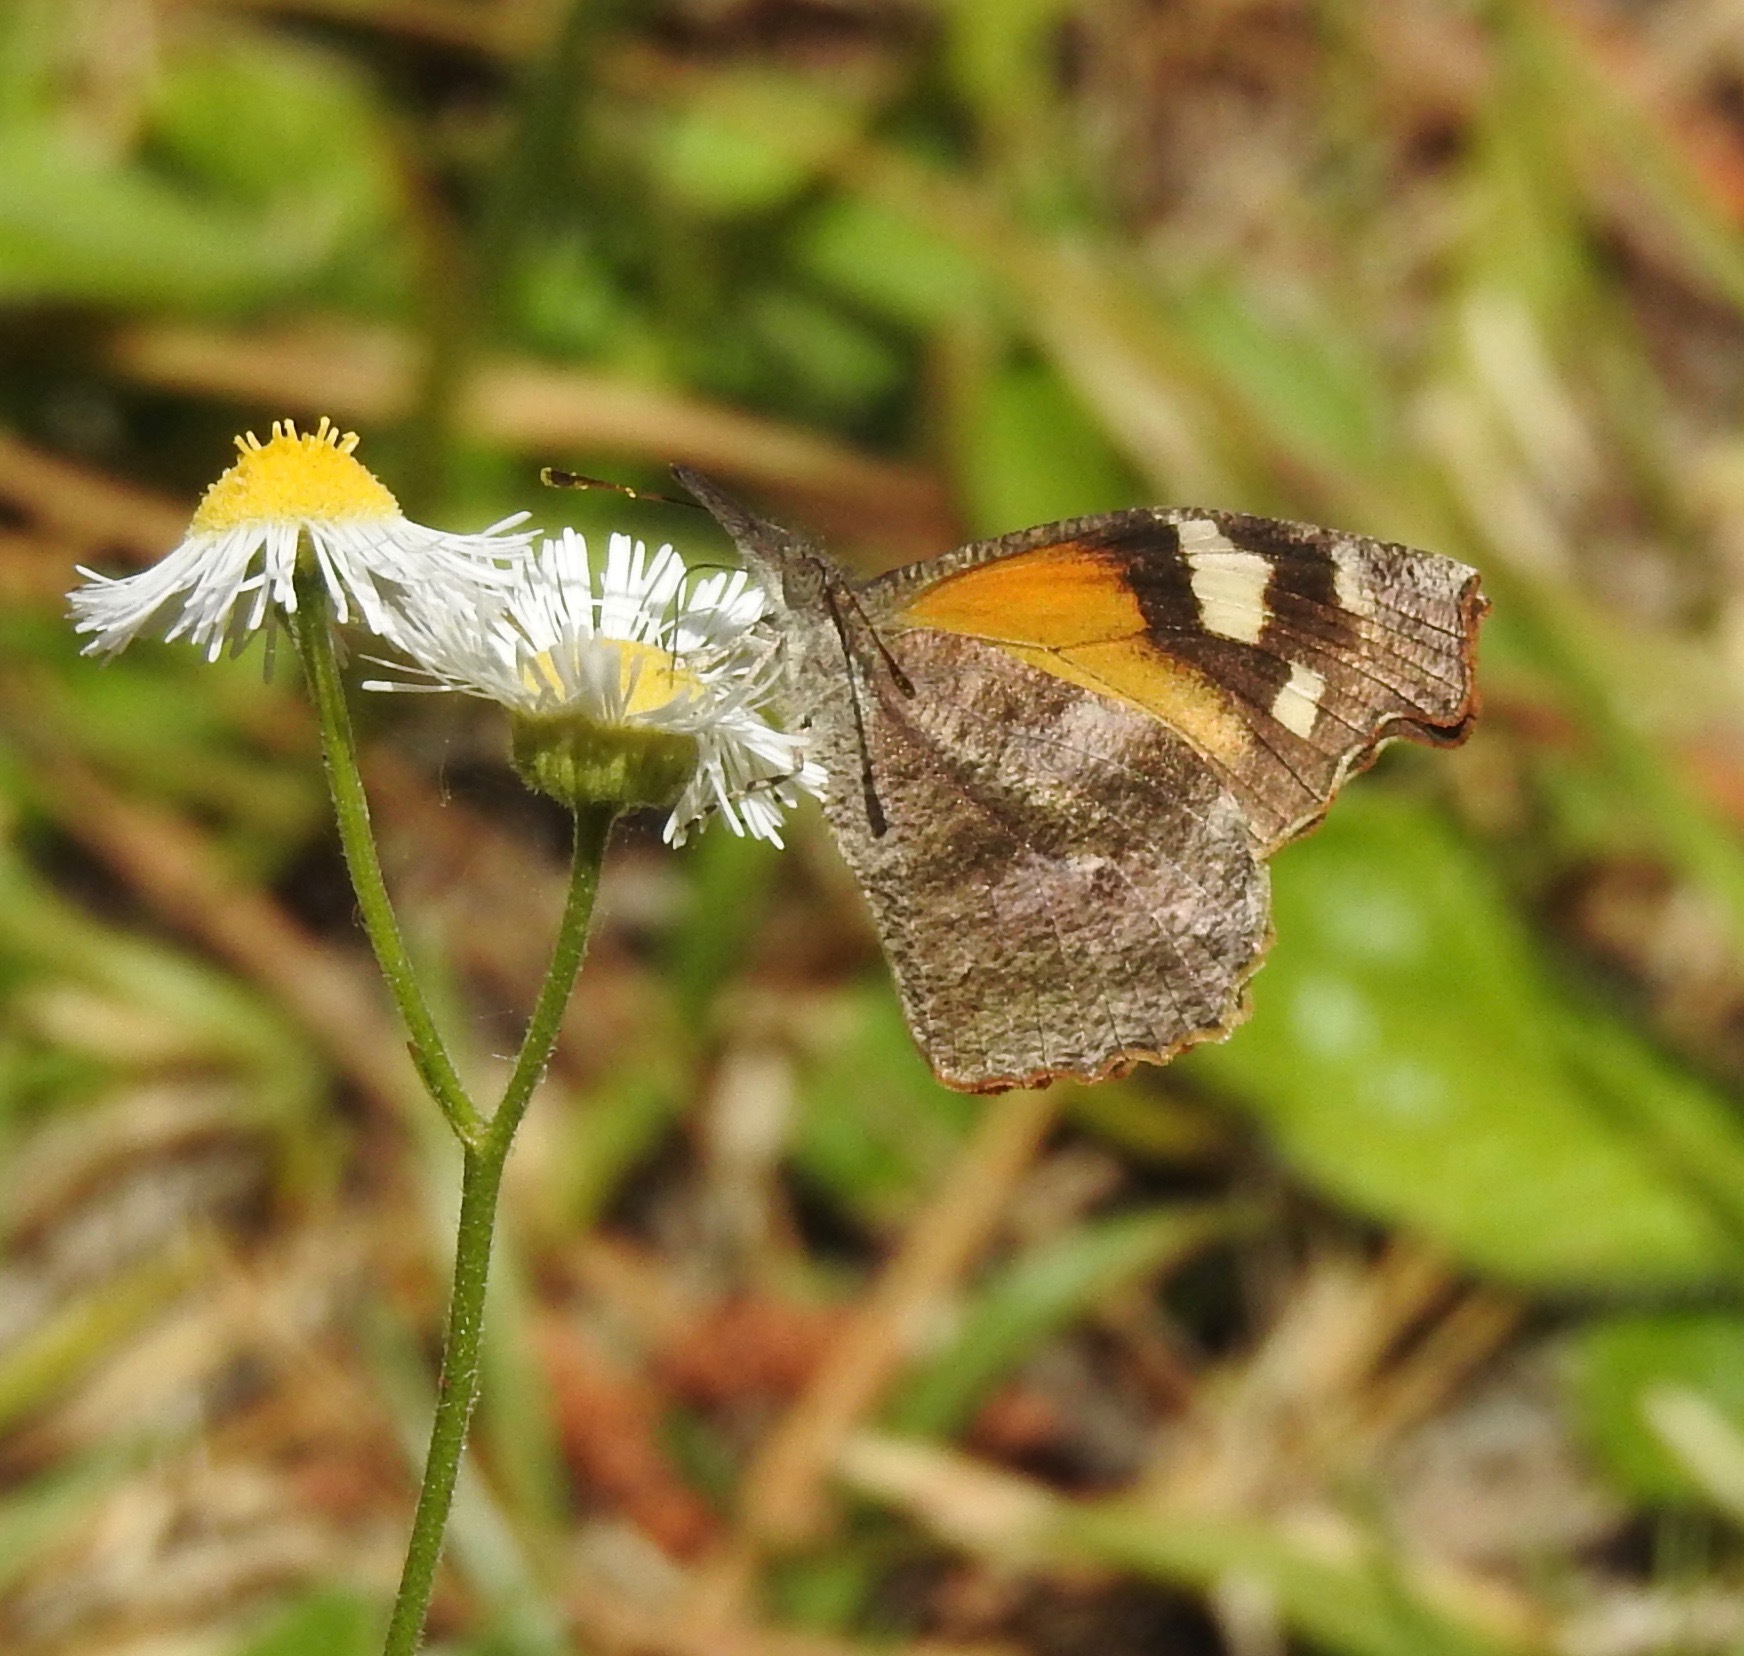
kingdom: Animalia
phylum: Arthropoda
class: Insecta
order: Lepidoptera
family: Nymphalidae
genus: Libytheana
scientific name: Libytheana carinenta
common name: American snout
